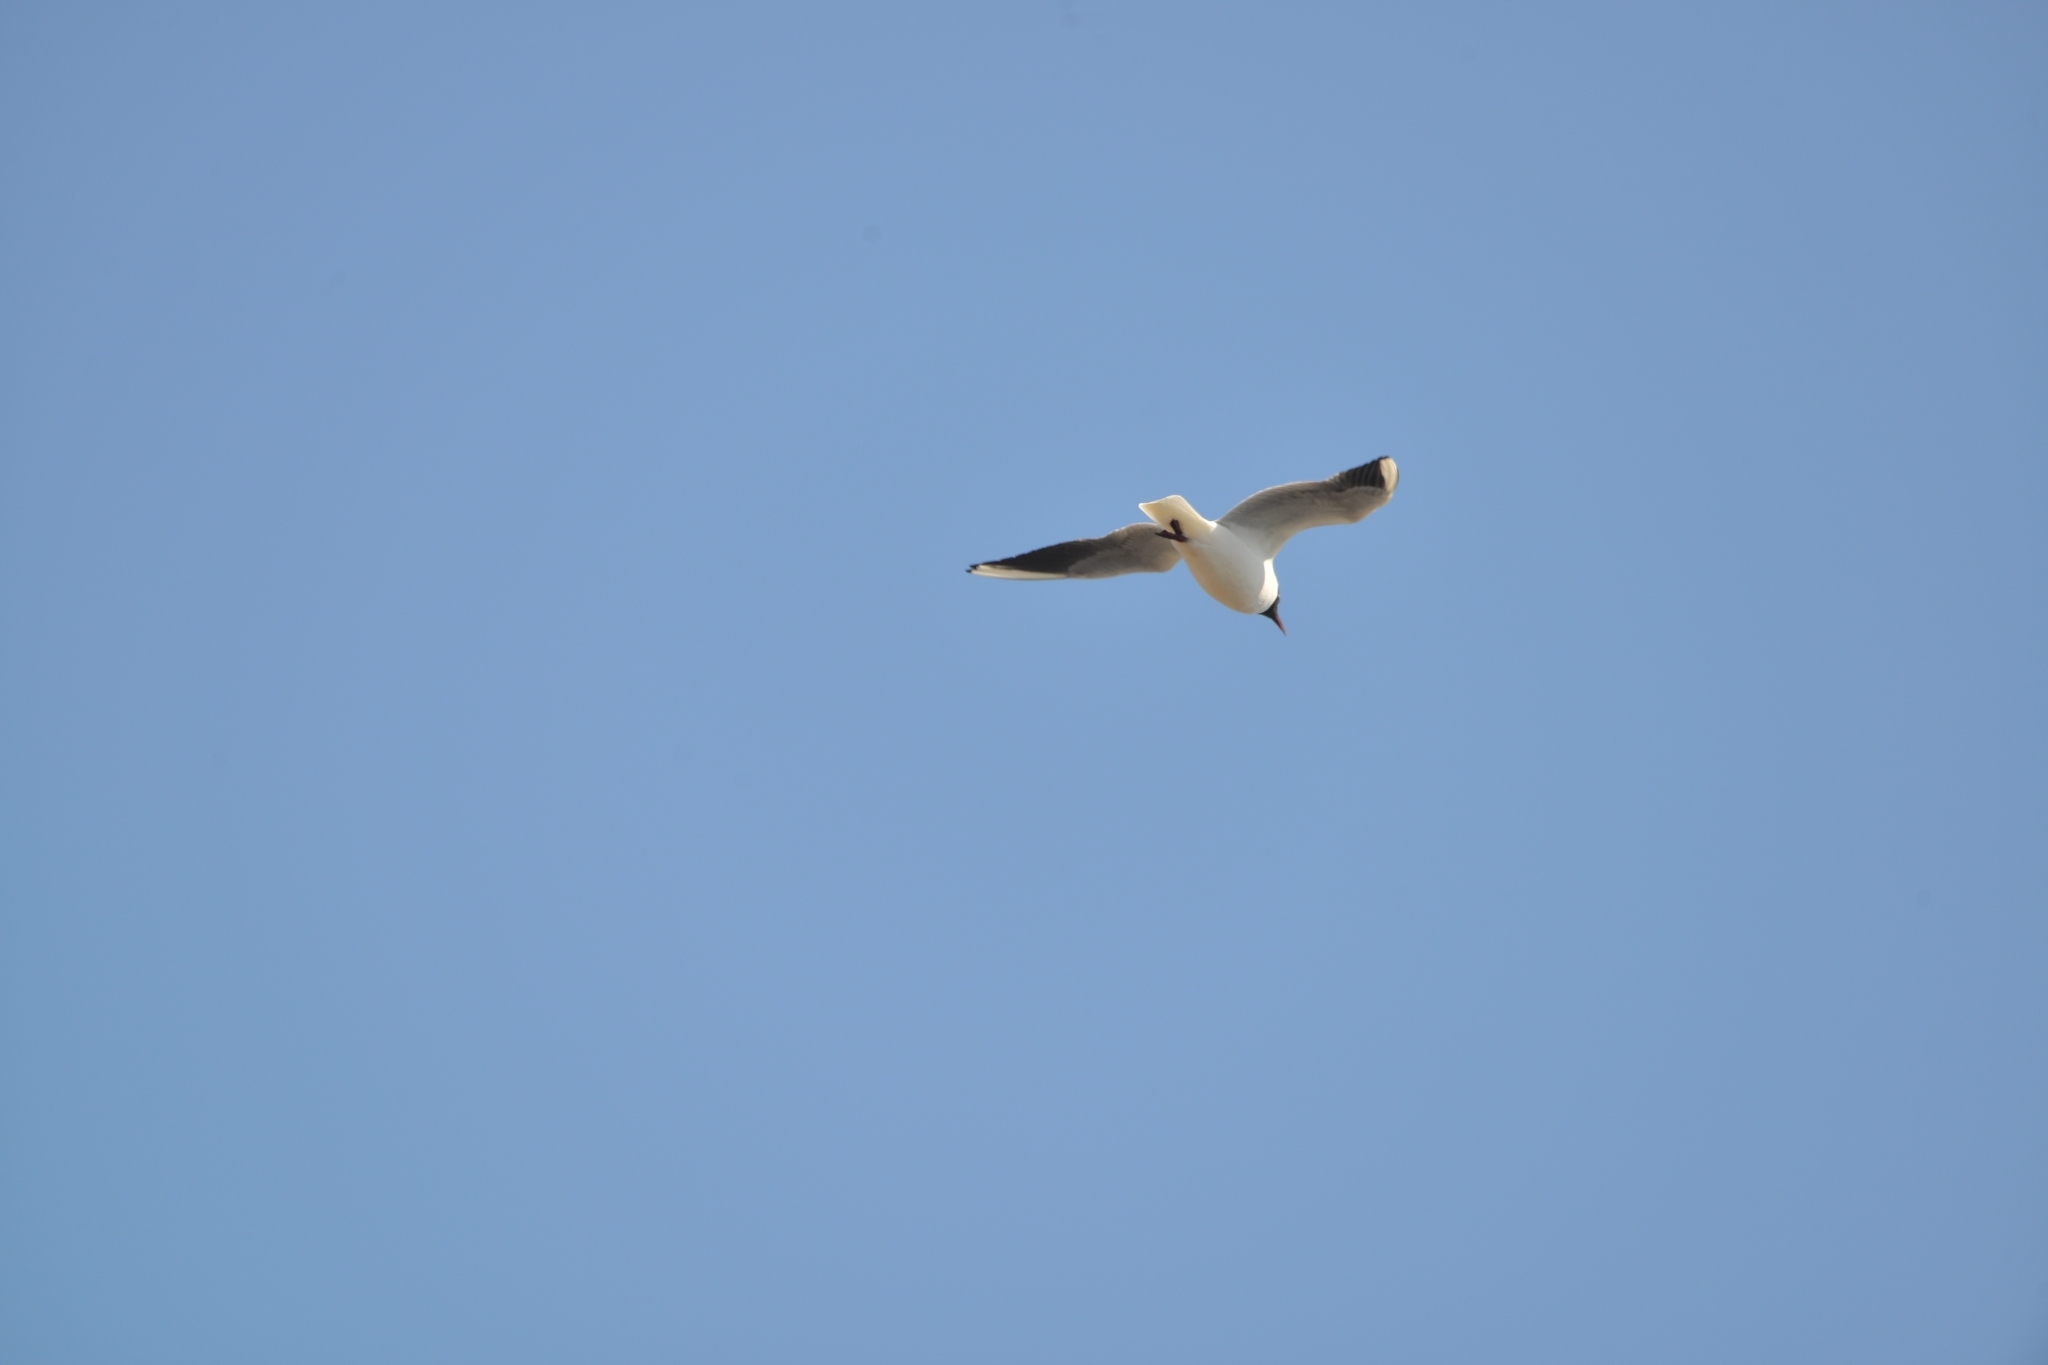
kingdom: Animalia
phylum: Chordata
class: Aves
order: Charadriiformes
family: Laridae
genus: Chroicocephalus
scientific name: Chroicocephalus ridibundus
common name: Black-headed gull
